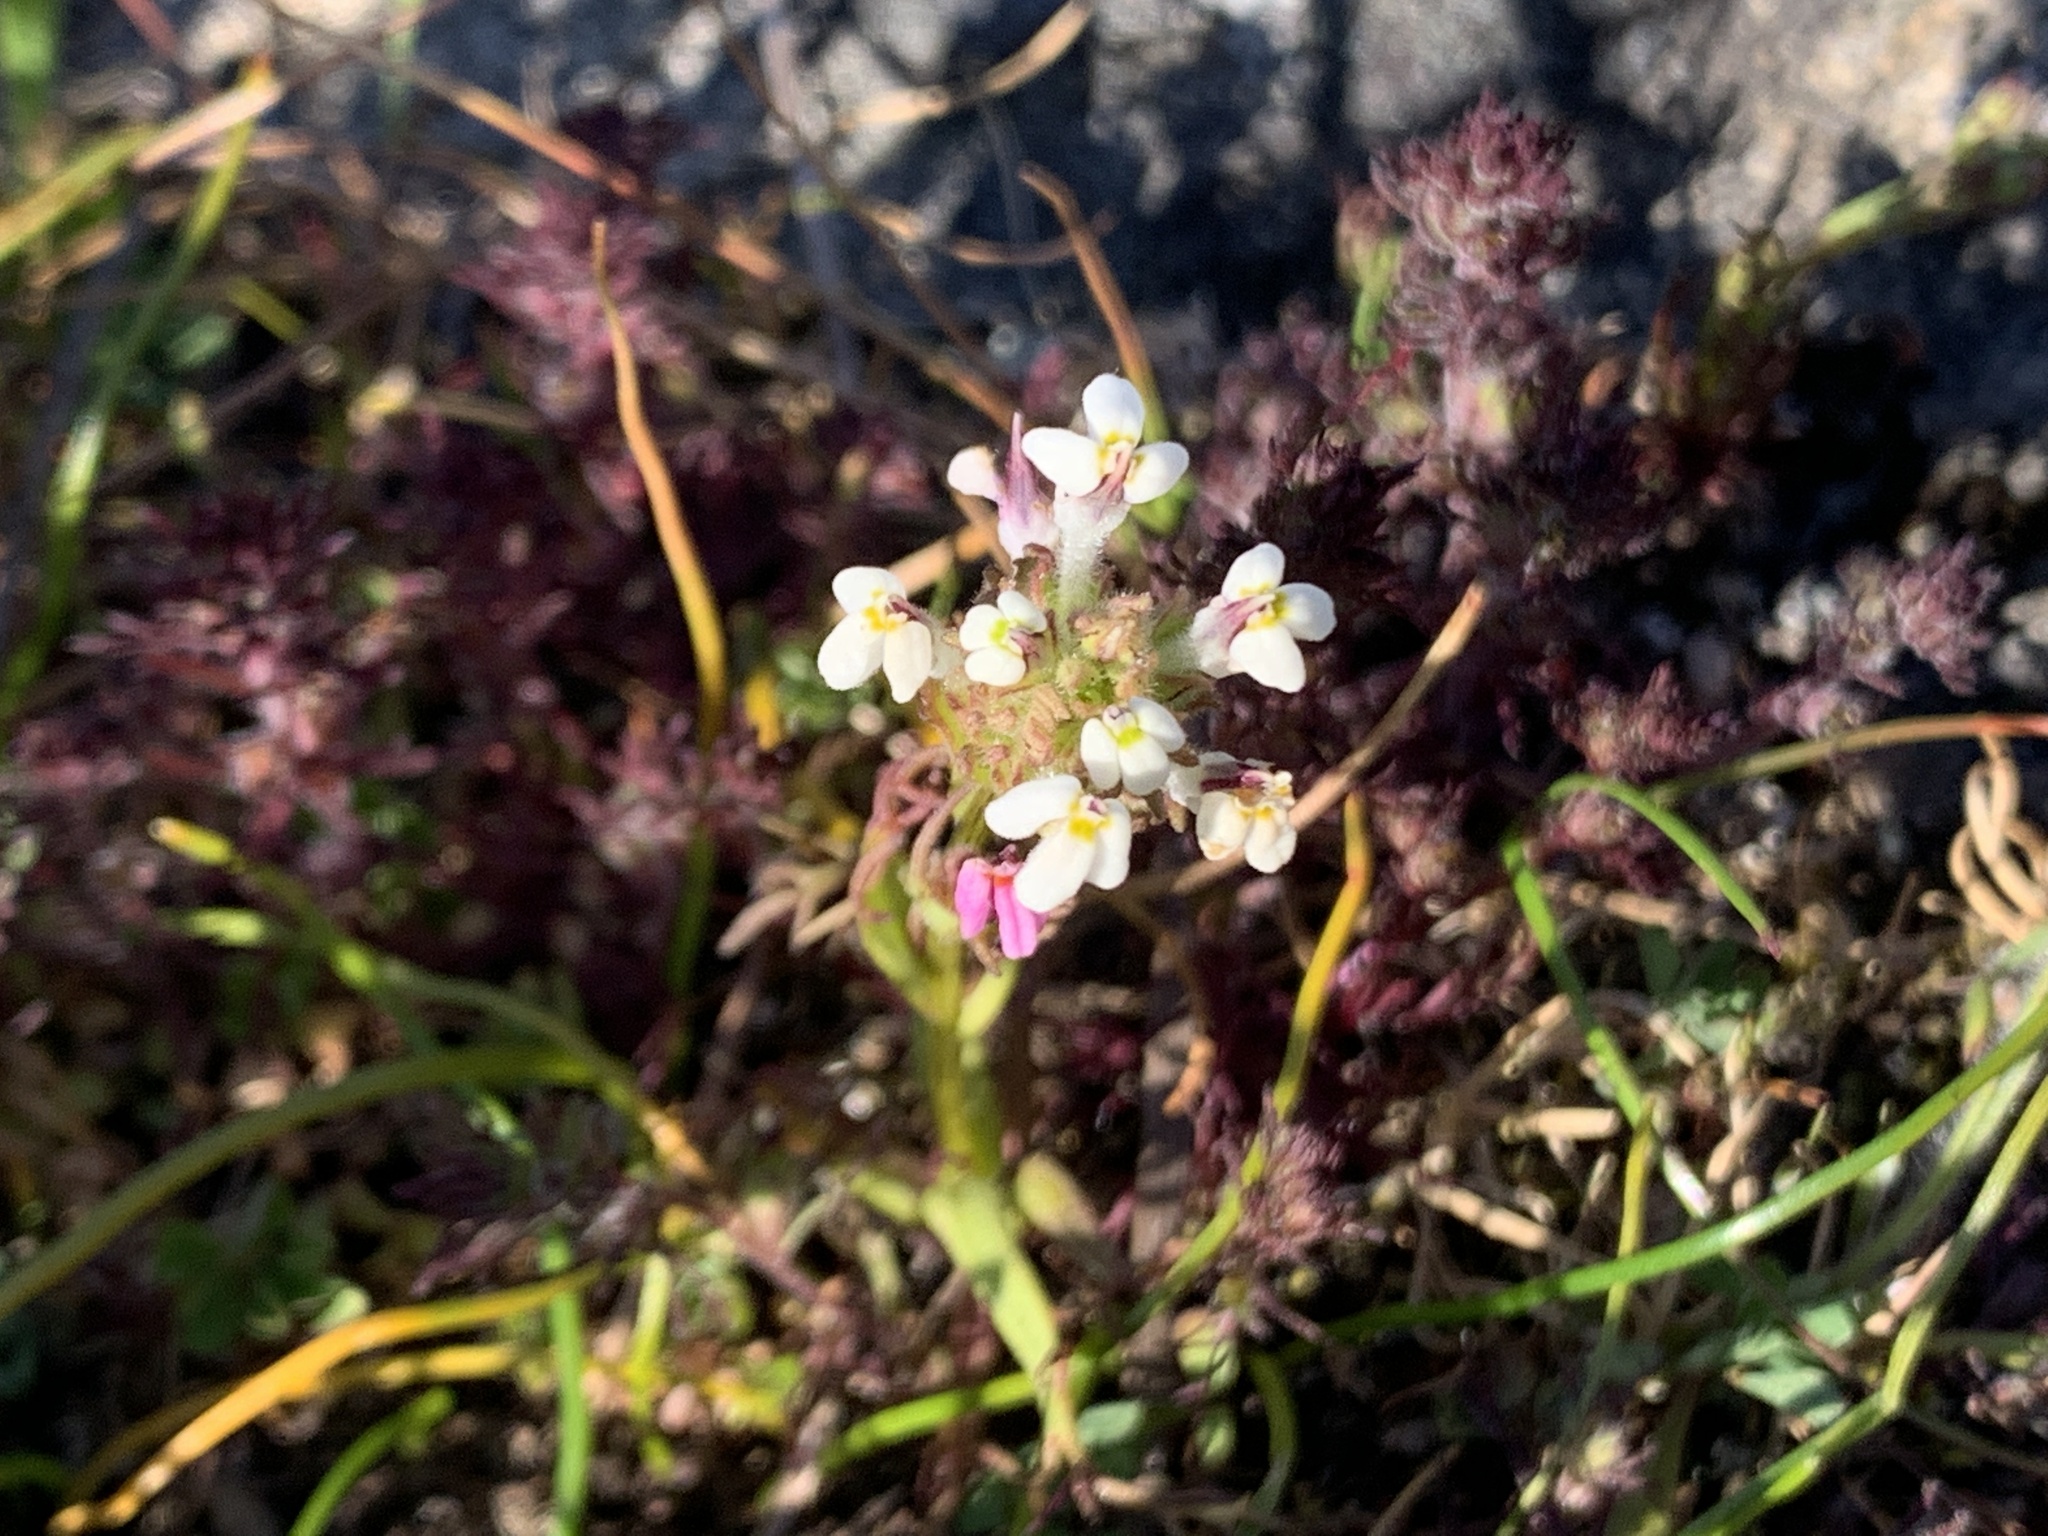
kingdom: Plantae
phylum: Tracheophyta
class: Magnoliopsida
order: Lamiales
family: Orobanchaceae
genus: Triphysaria
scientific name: Triphysaria versicolor
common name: Bearded false owl-clover
